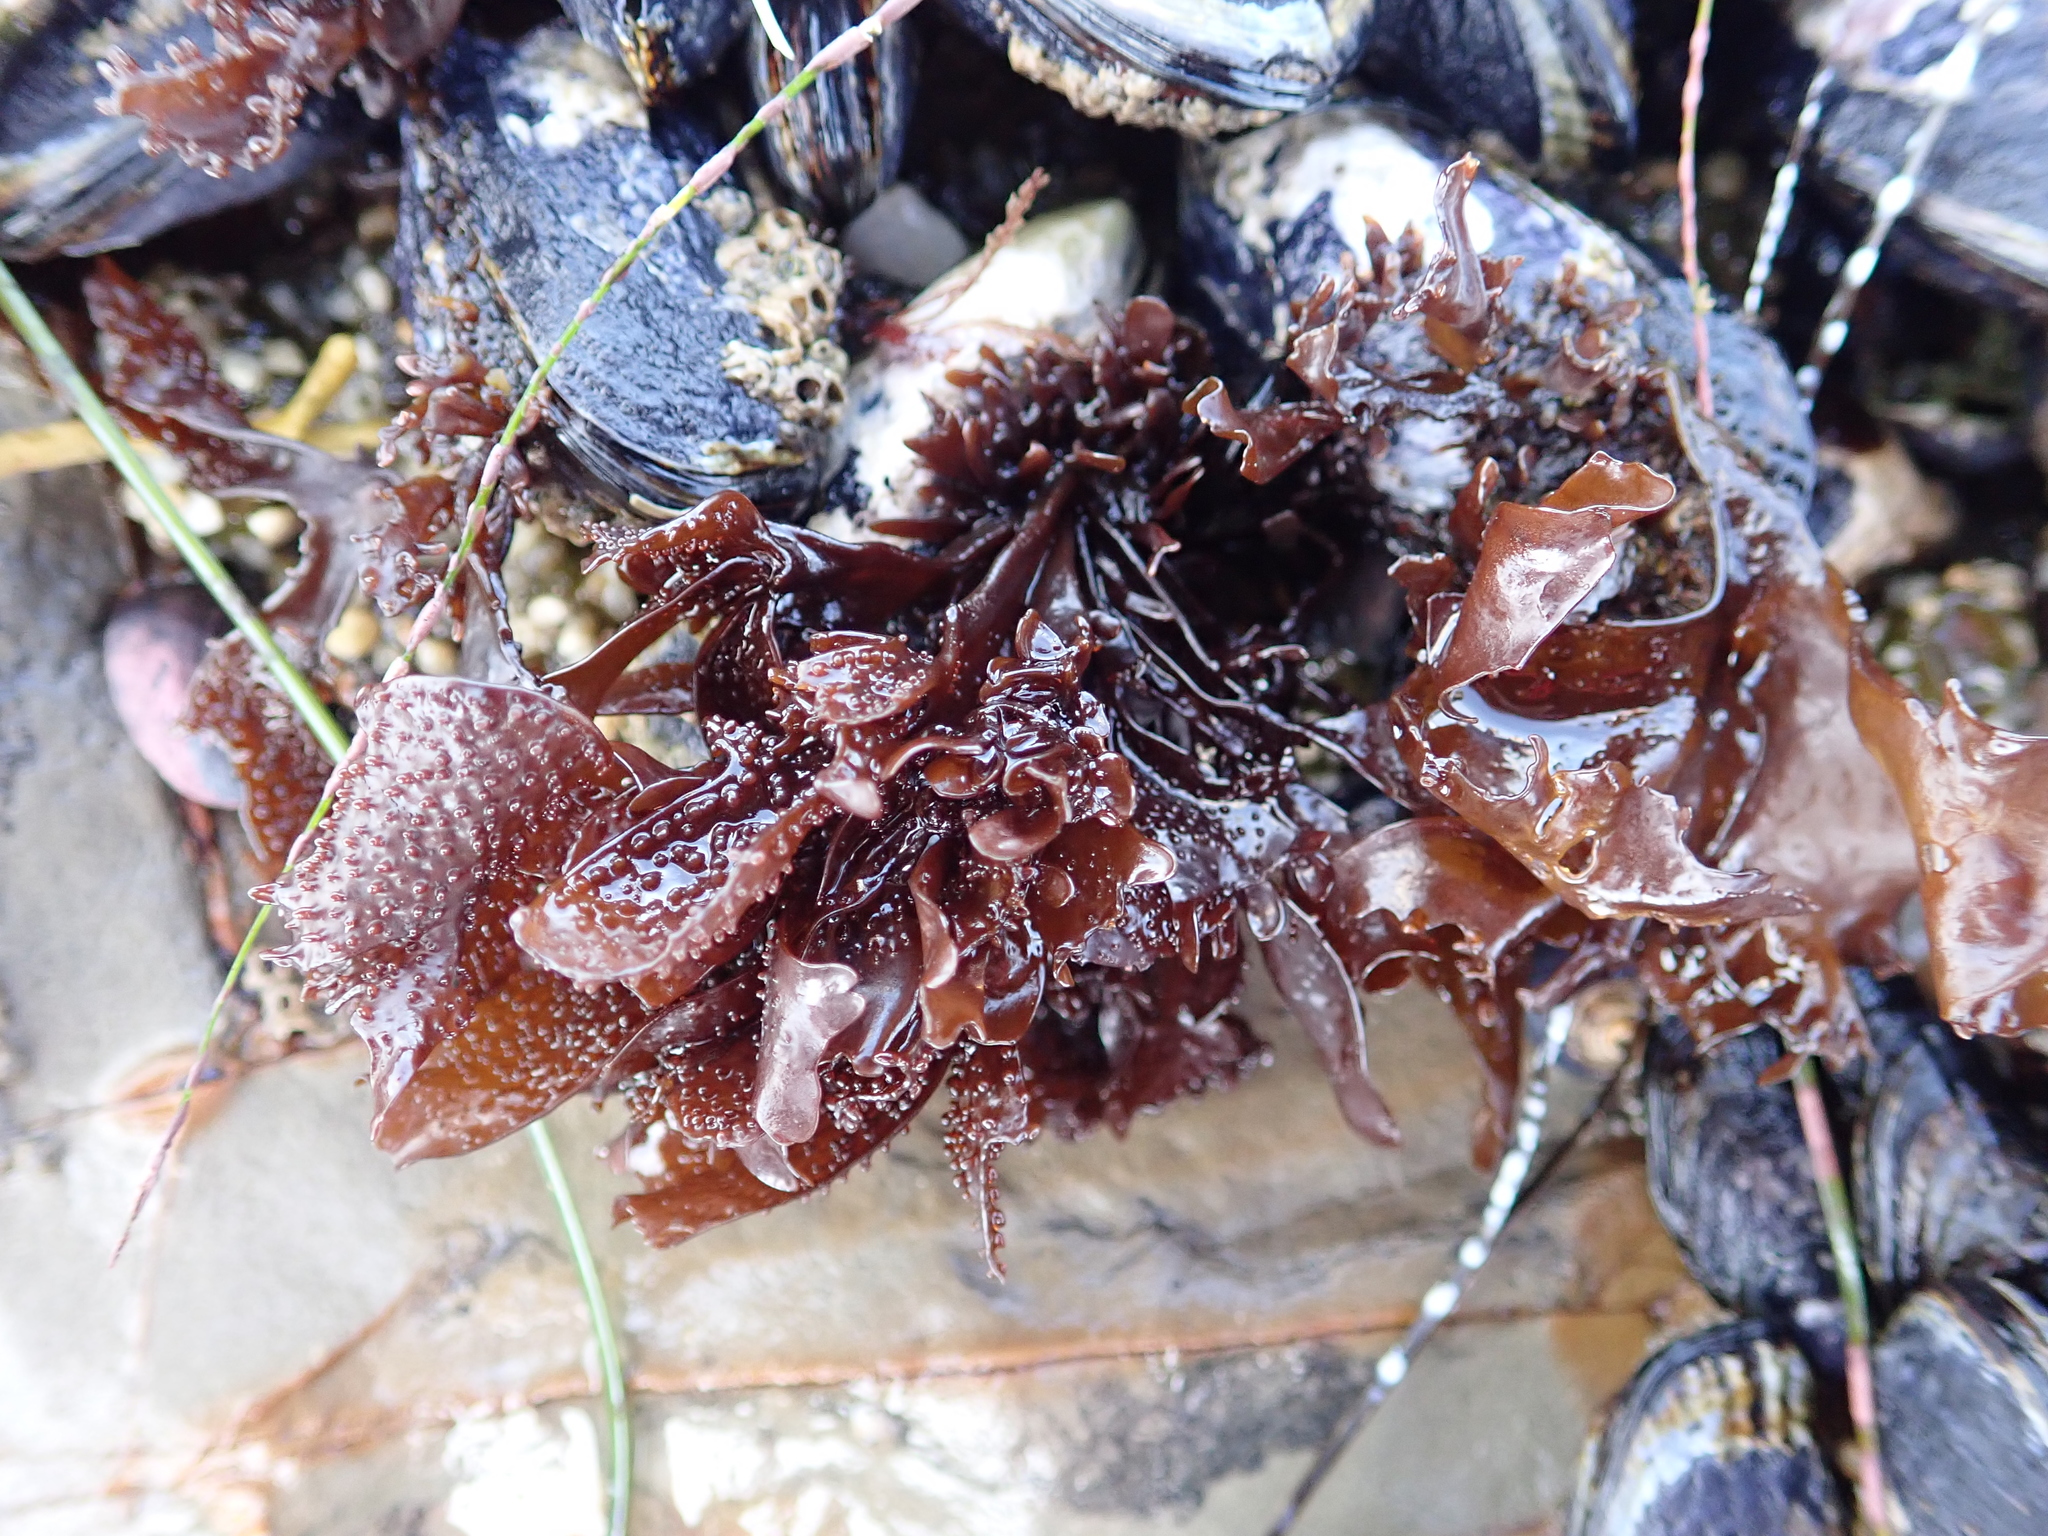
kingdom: Plantae
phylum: Rhodophyta
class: Florideophyceae
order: Gigartinales
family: Phyllophoraceae
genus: Mastocarpus
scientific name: Mastocarpus papillatus
